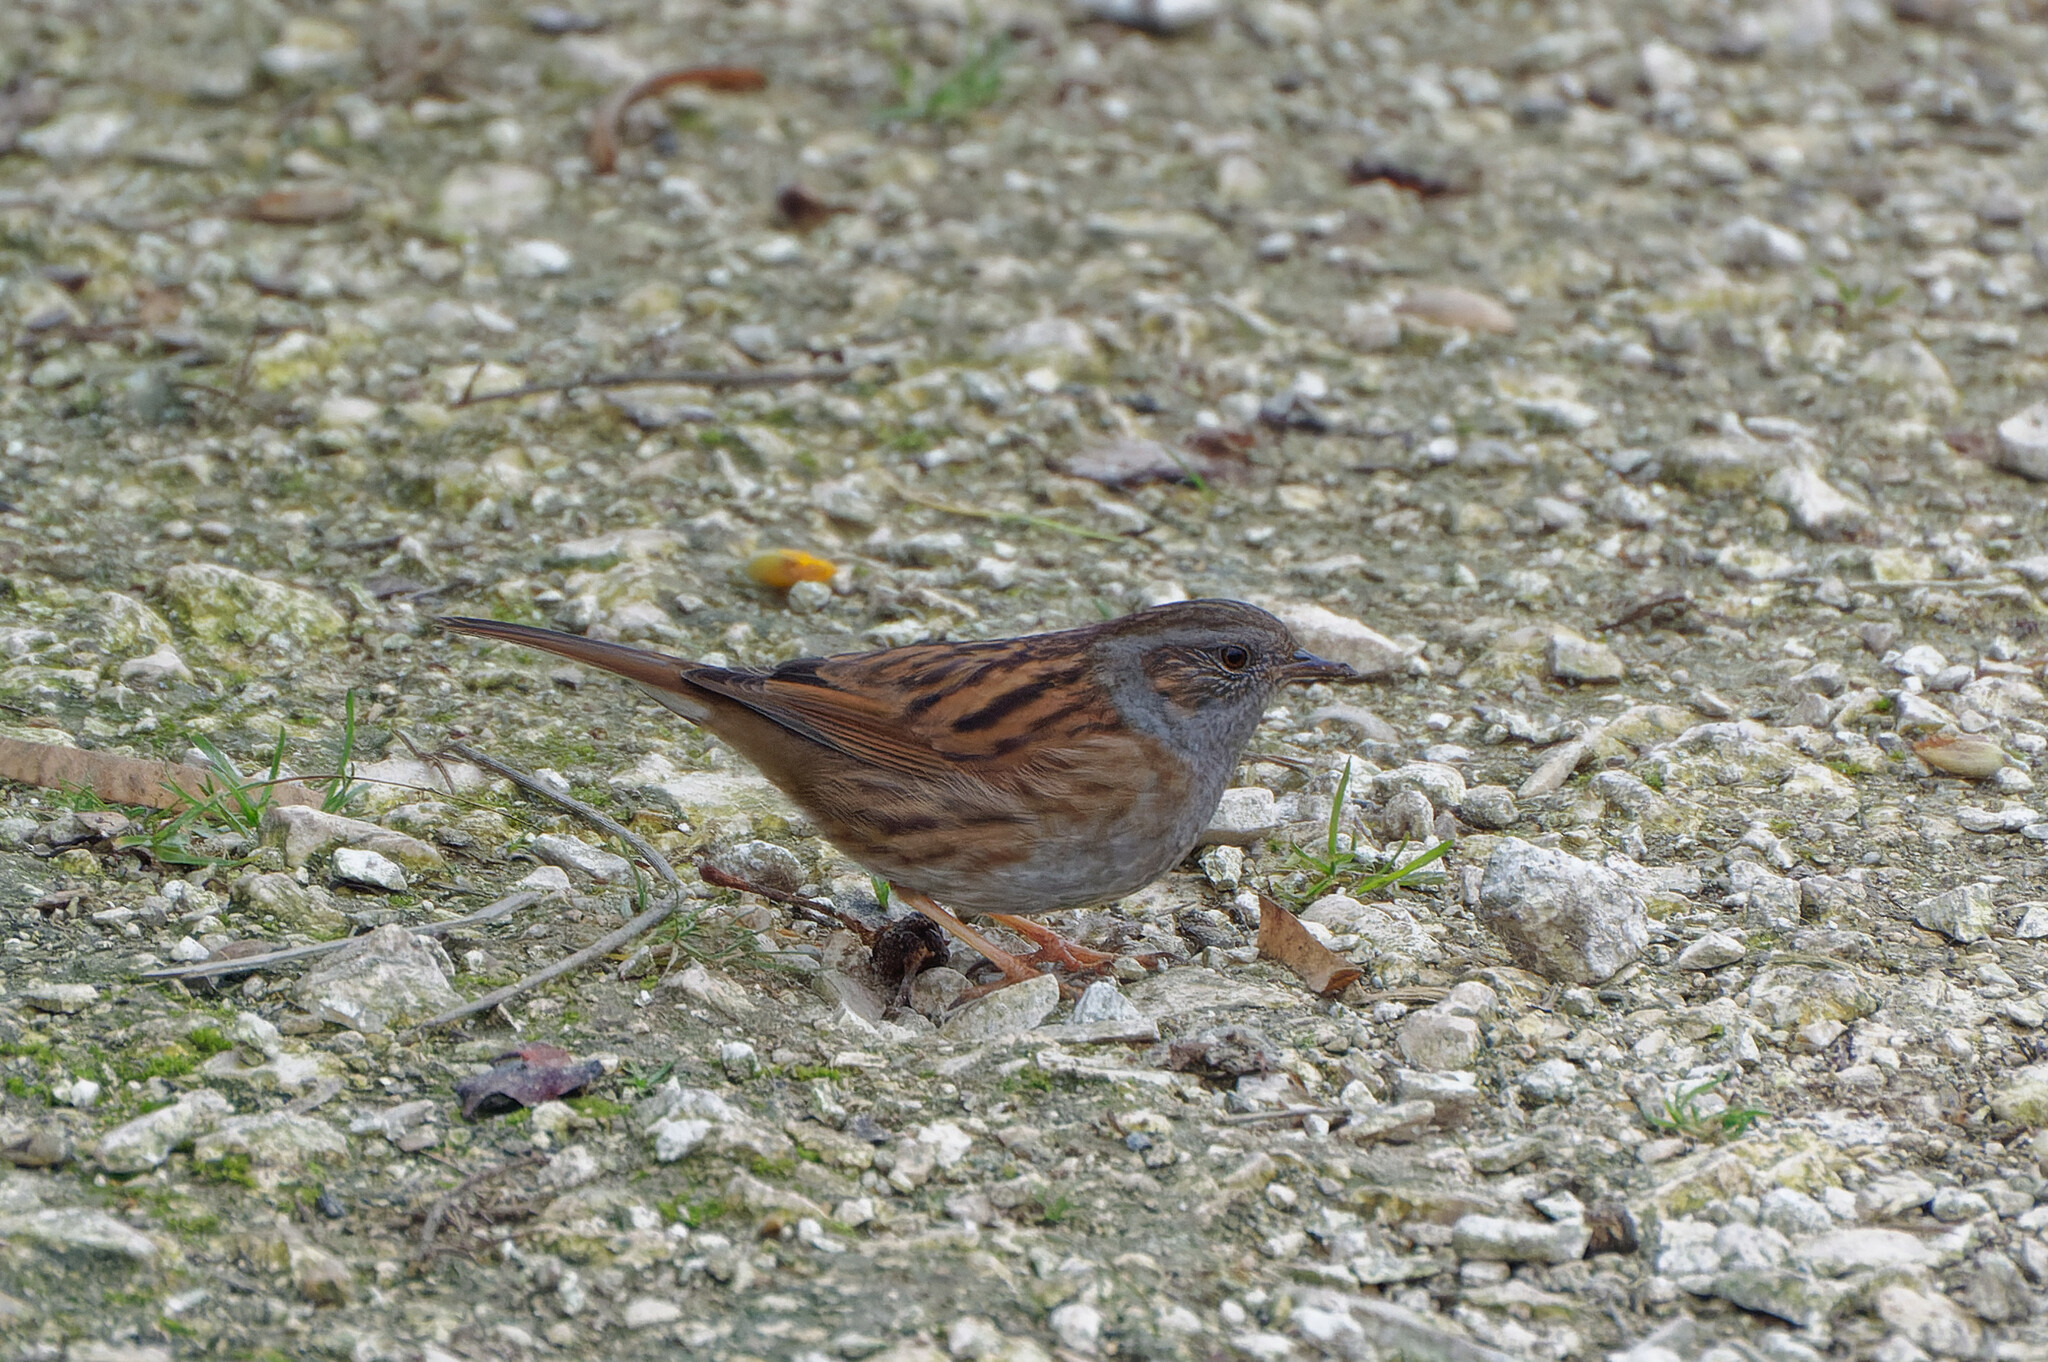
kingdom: Animalia
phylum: Chordata
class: Aves
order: Passeriformes
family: Prunellidae
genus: Prunella
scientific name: Prunella modularis
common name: Dunnock
